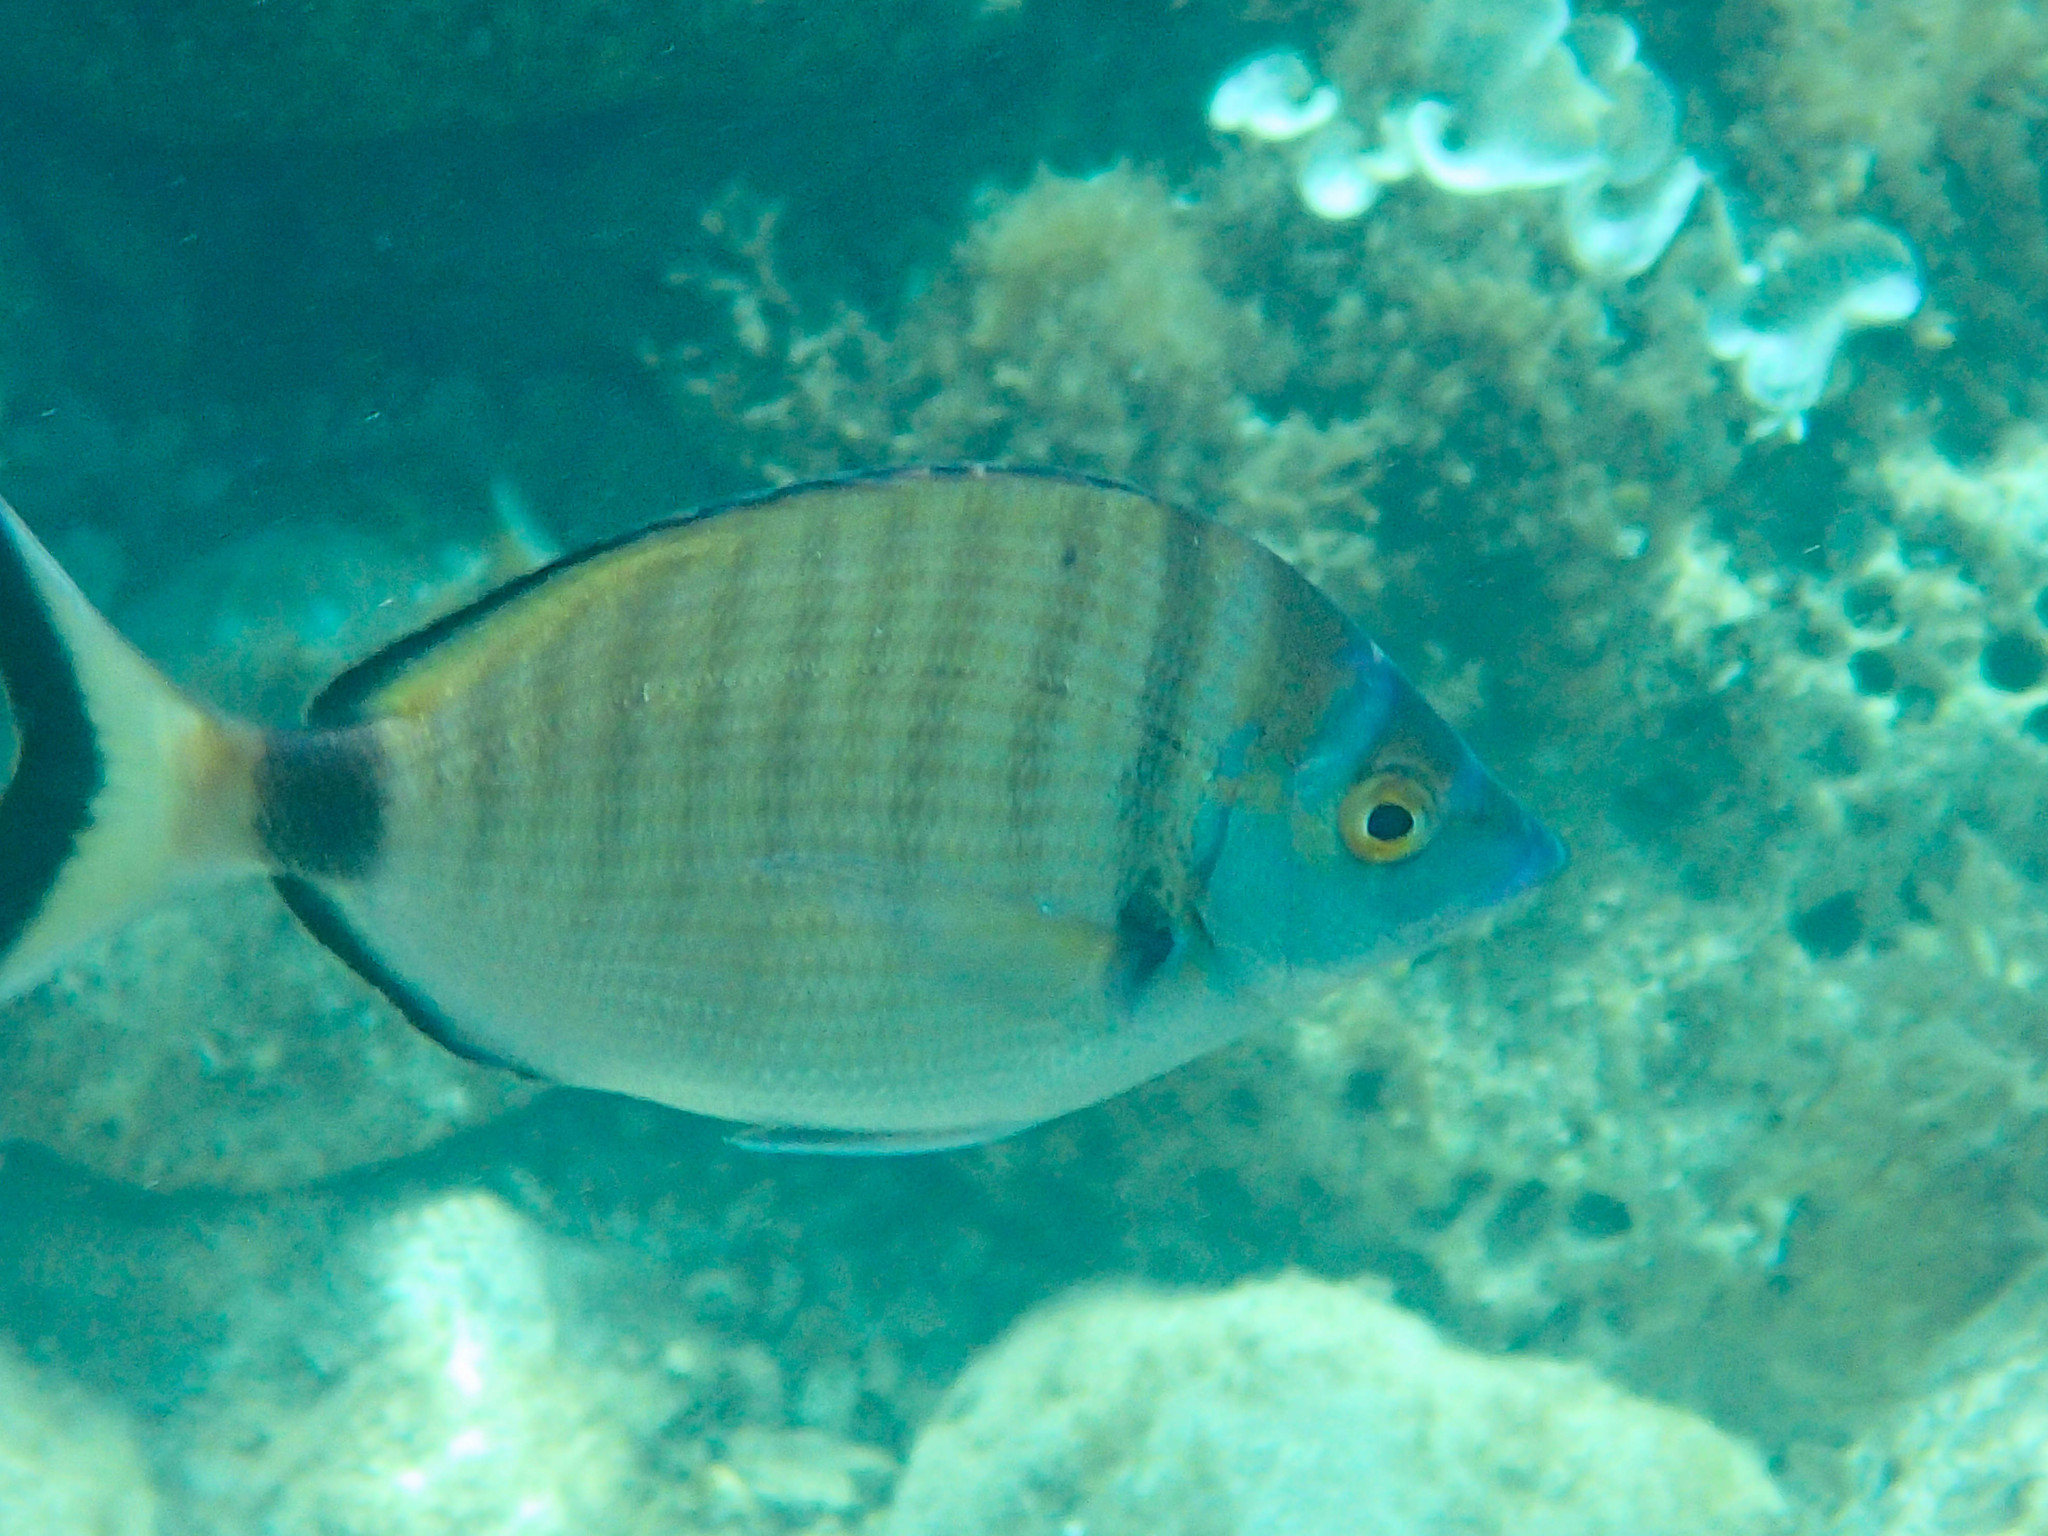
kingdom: Animalia
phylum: Chordata
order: Perciformes
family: Sparidae
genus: Diplodus
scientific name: Diplodus puntazzo
